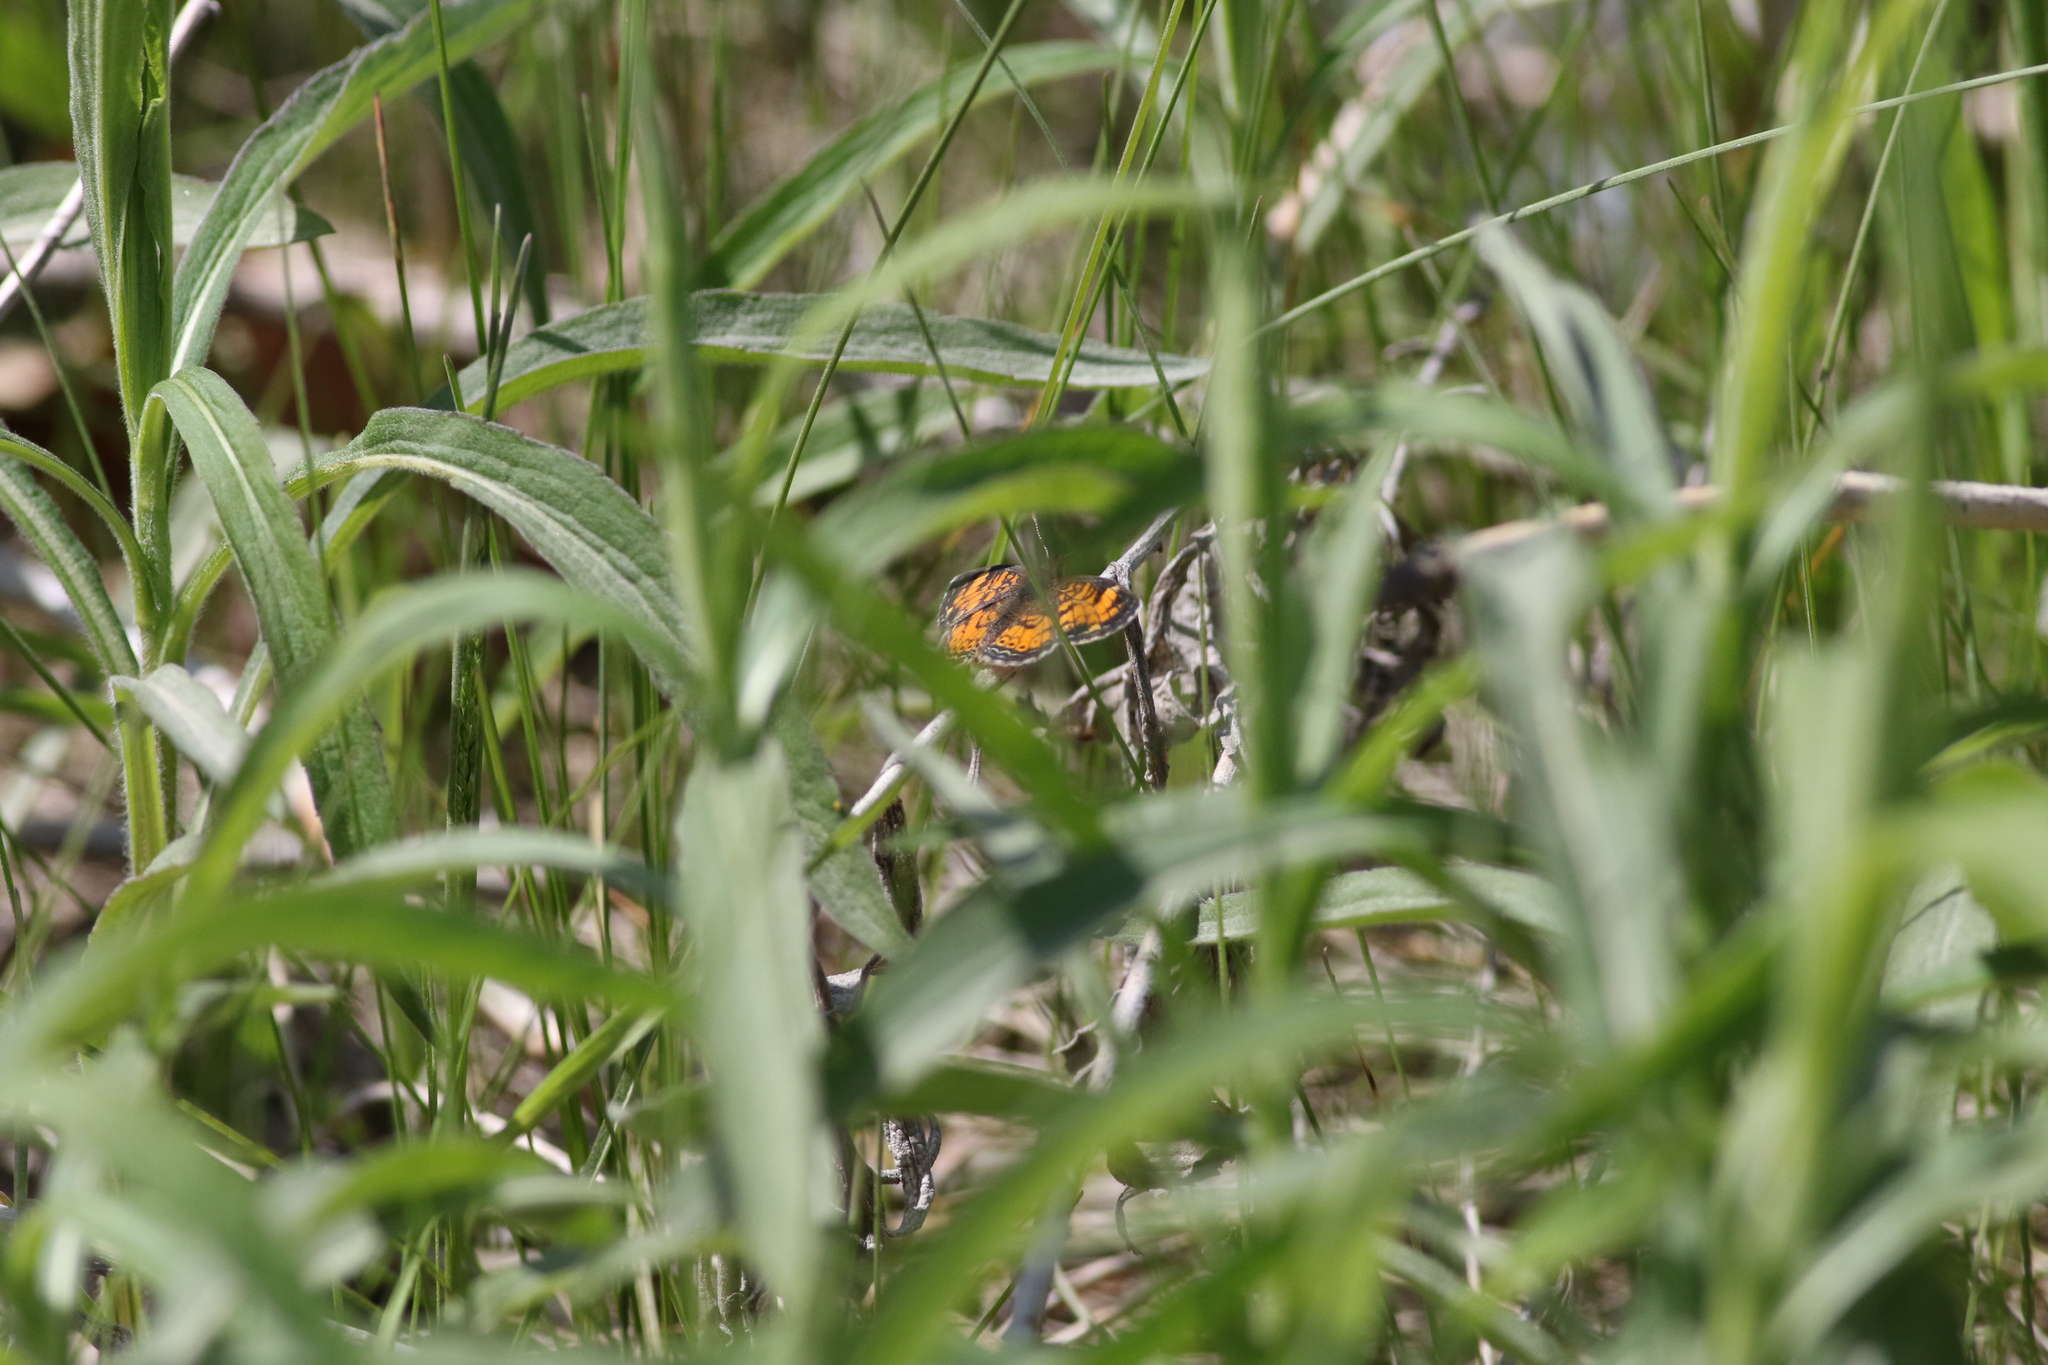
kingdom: Animalia
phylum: Arthropoda
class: Insecta
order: Lepidoptera
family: Nymphalidae
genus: Phyciodes
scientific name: Phyciodes tharos
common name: Pearl crescent
